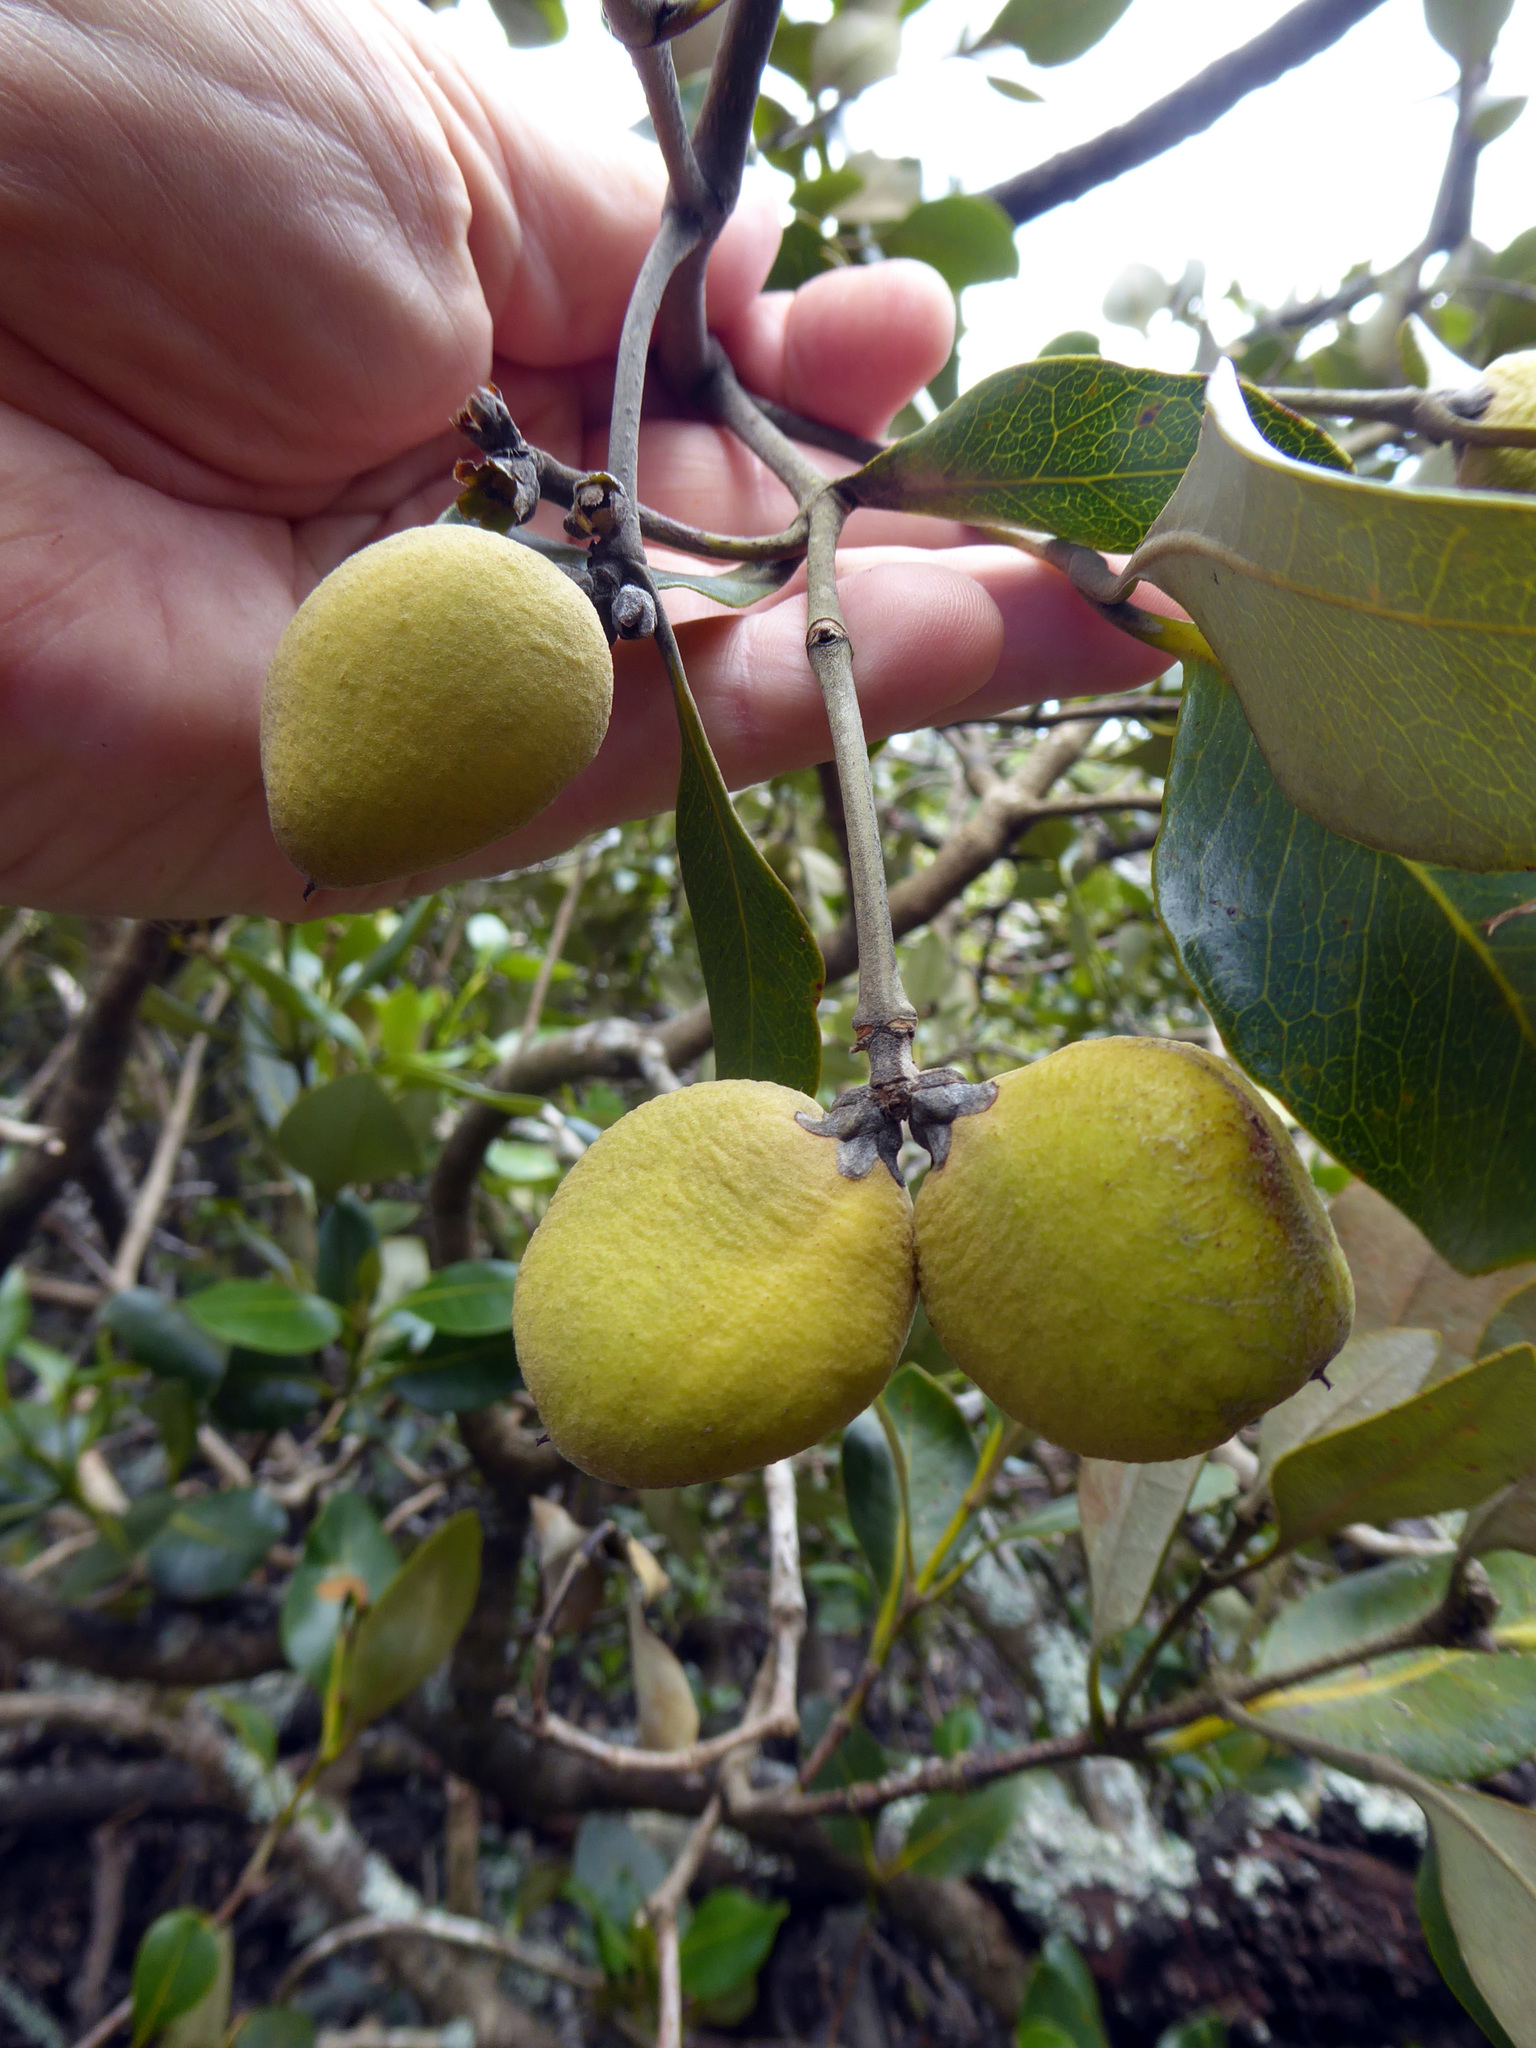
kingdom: Plantae
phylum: Tracheophyta
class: Magnoliopsida
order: Lamiales
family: Acanthaceae
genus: Avicennia
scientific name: Avicennia marina
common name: Gray mangrove
